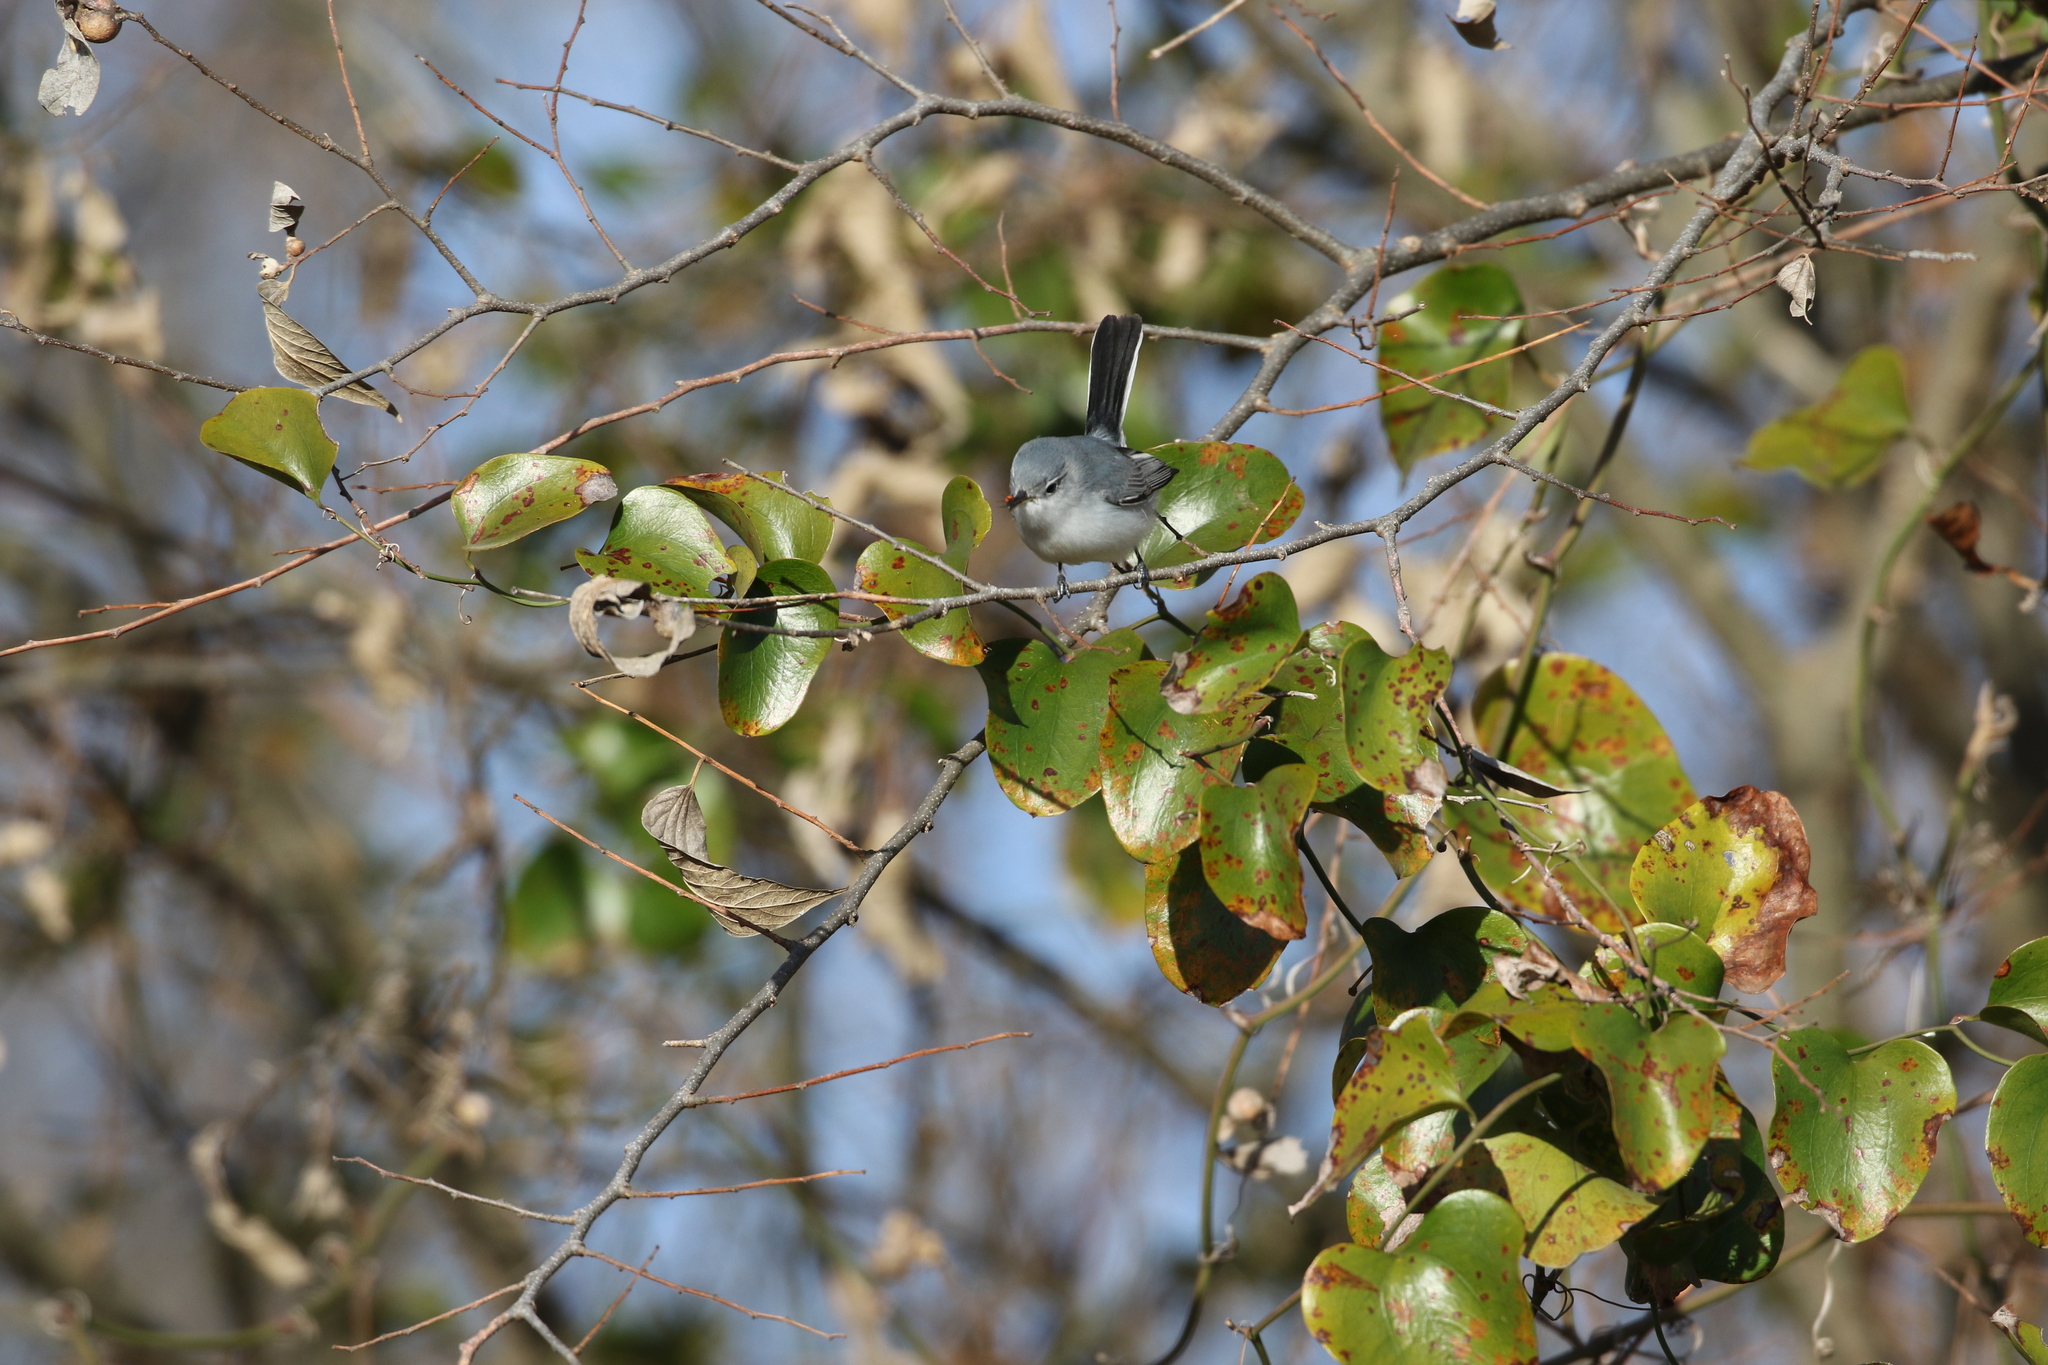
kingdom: Animalia
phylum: Chordata
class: Aves
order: Passeriformes
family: Polioptilidae
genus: Polioptila
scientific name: Polioptila caerulea
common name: Blue-gray gnatcatcher
